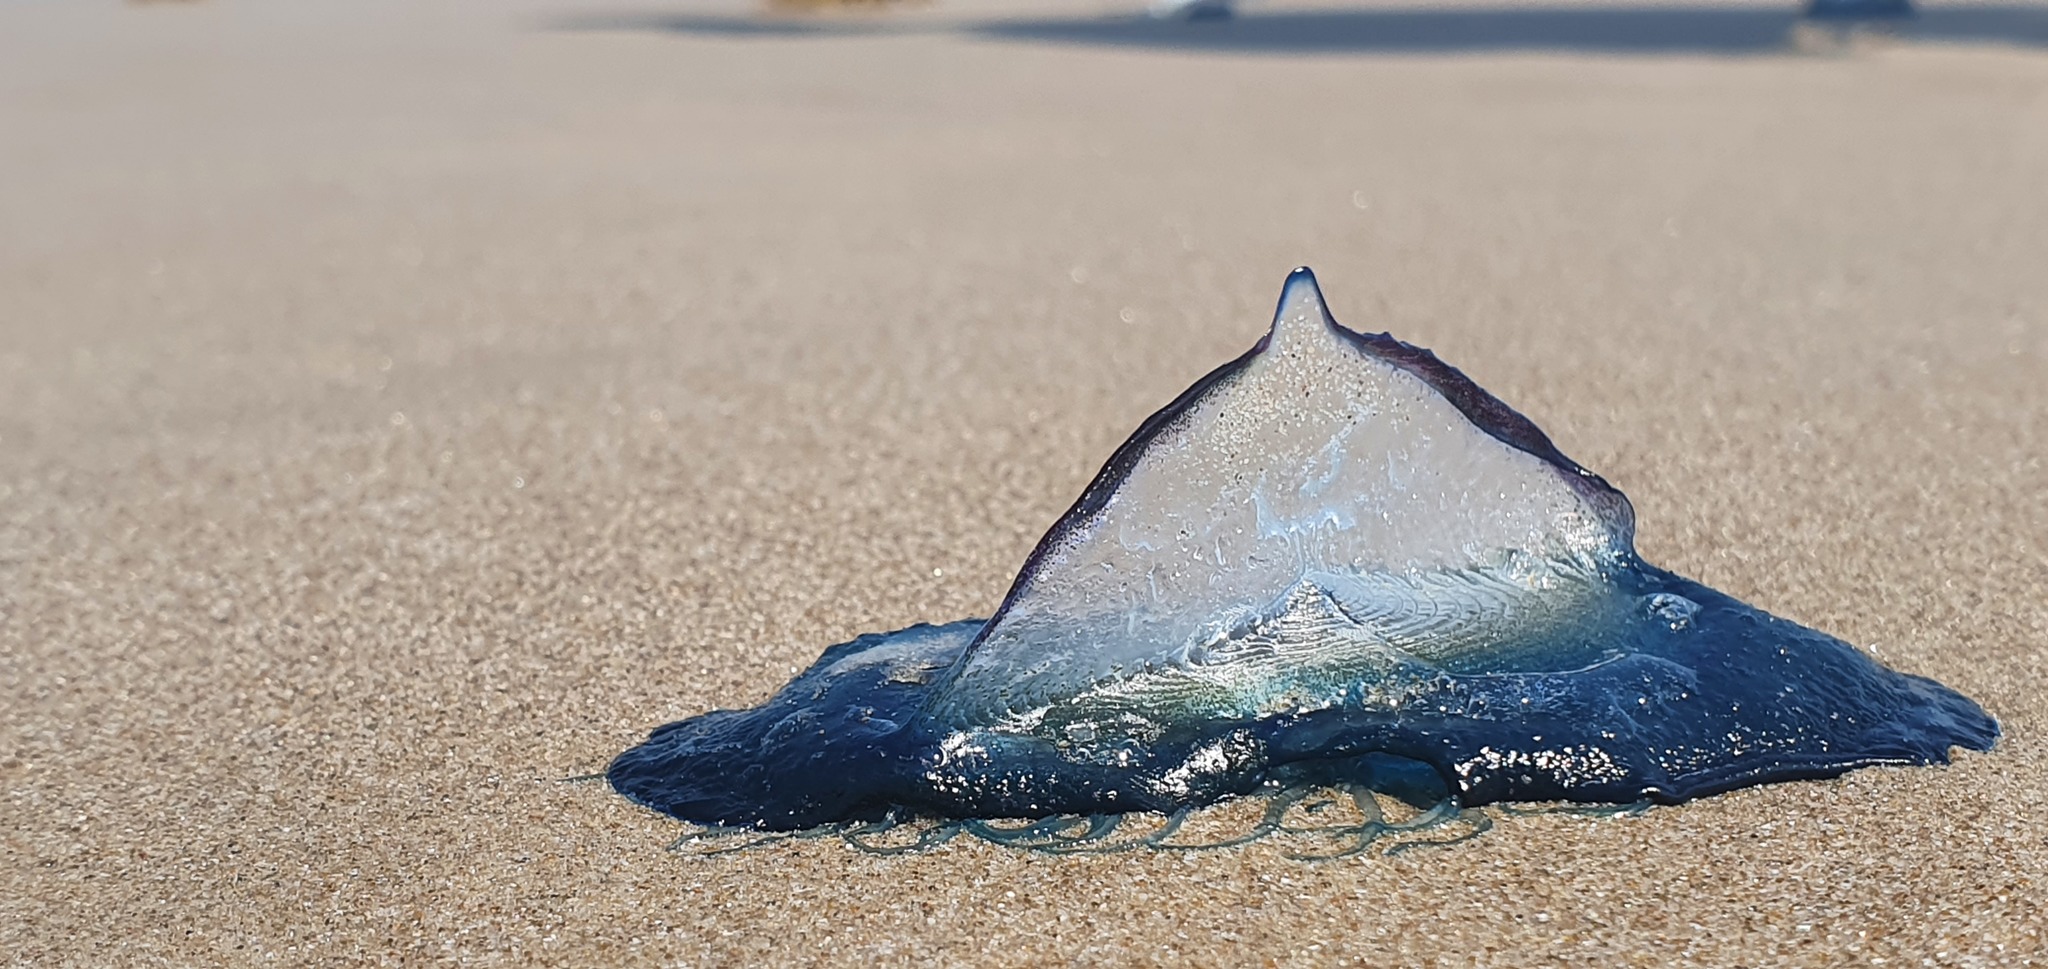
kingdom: Animalia
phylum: Cnidaria
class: Hydrozoa
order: Anthoathecata
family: Porpitidae
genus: Velella
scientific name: Velella velella
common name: By-the-wind-sailor
